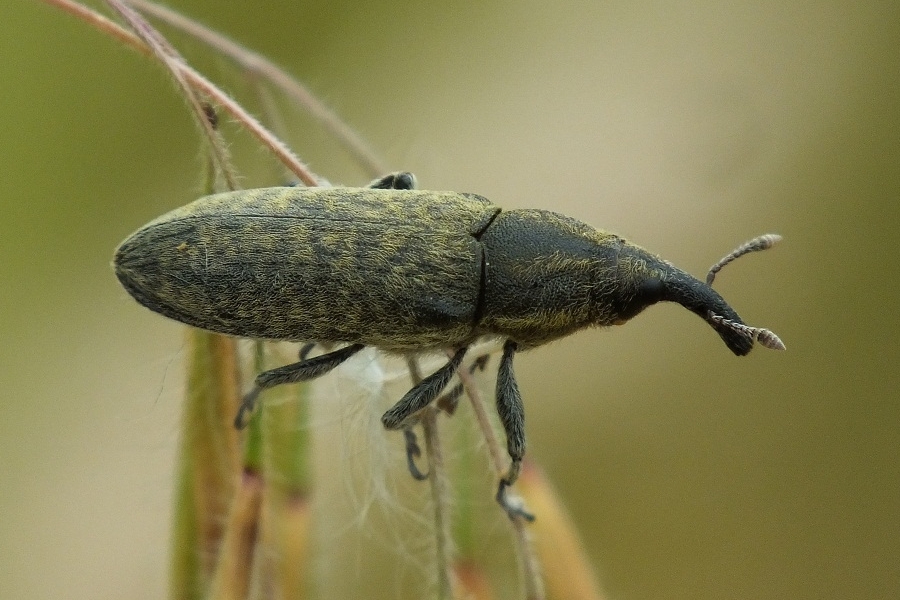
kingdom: Animalia
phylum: Arthropoda
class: Insecta
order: Coleoptera
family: Curculionidae
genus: Lixus
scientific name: Lixus cardui
